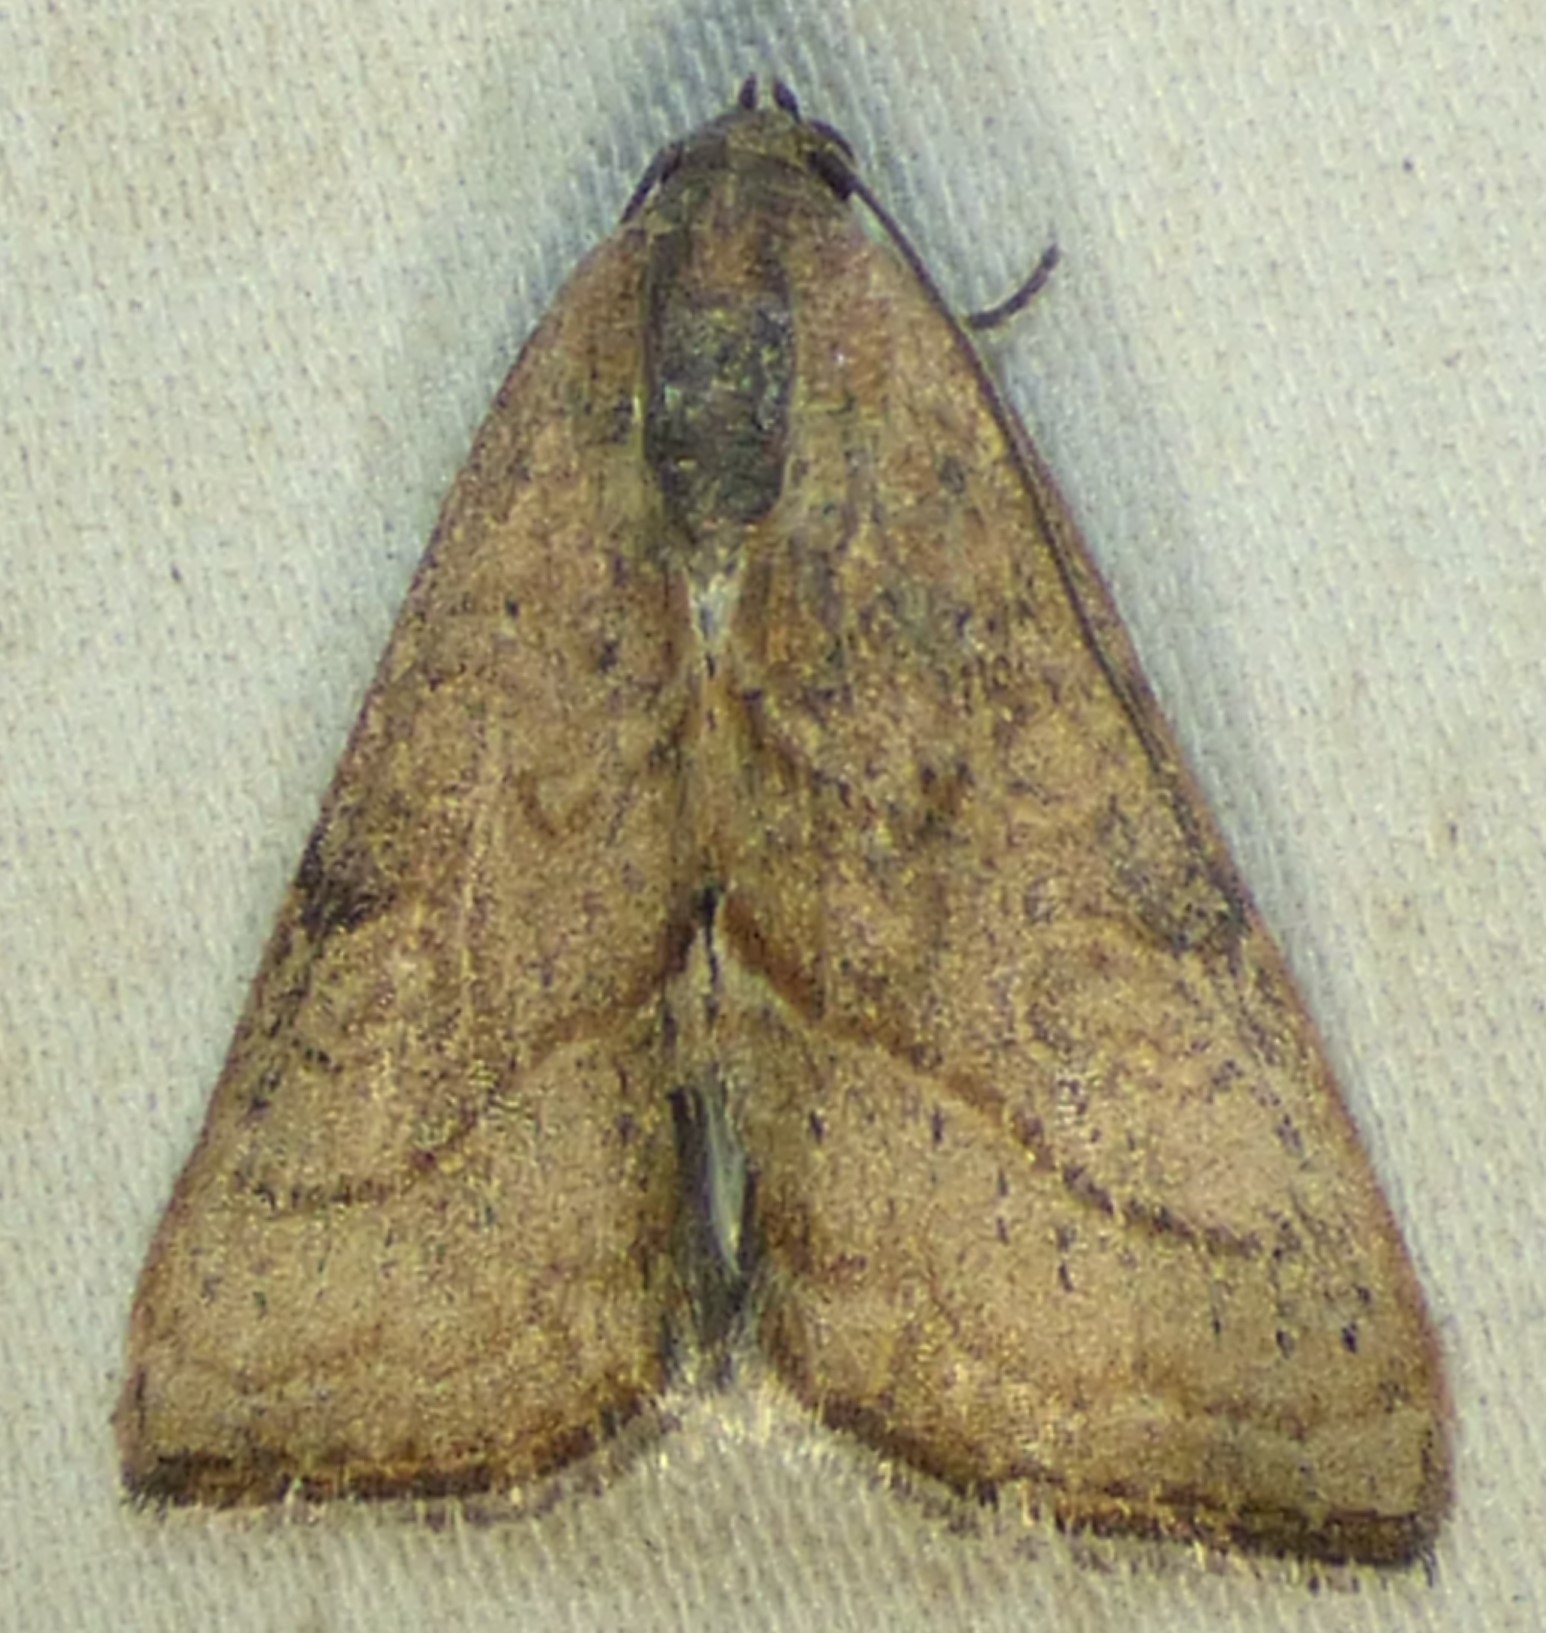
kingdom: Animalia
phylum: Arthropoda
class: Insecta
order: Lepidoptera
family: Noctuidae
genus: Galgula
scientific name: Galgula partita
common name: Wedgeling
